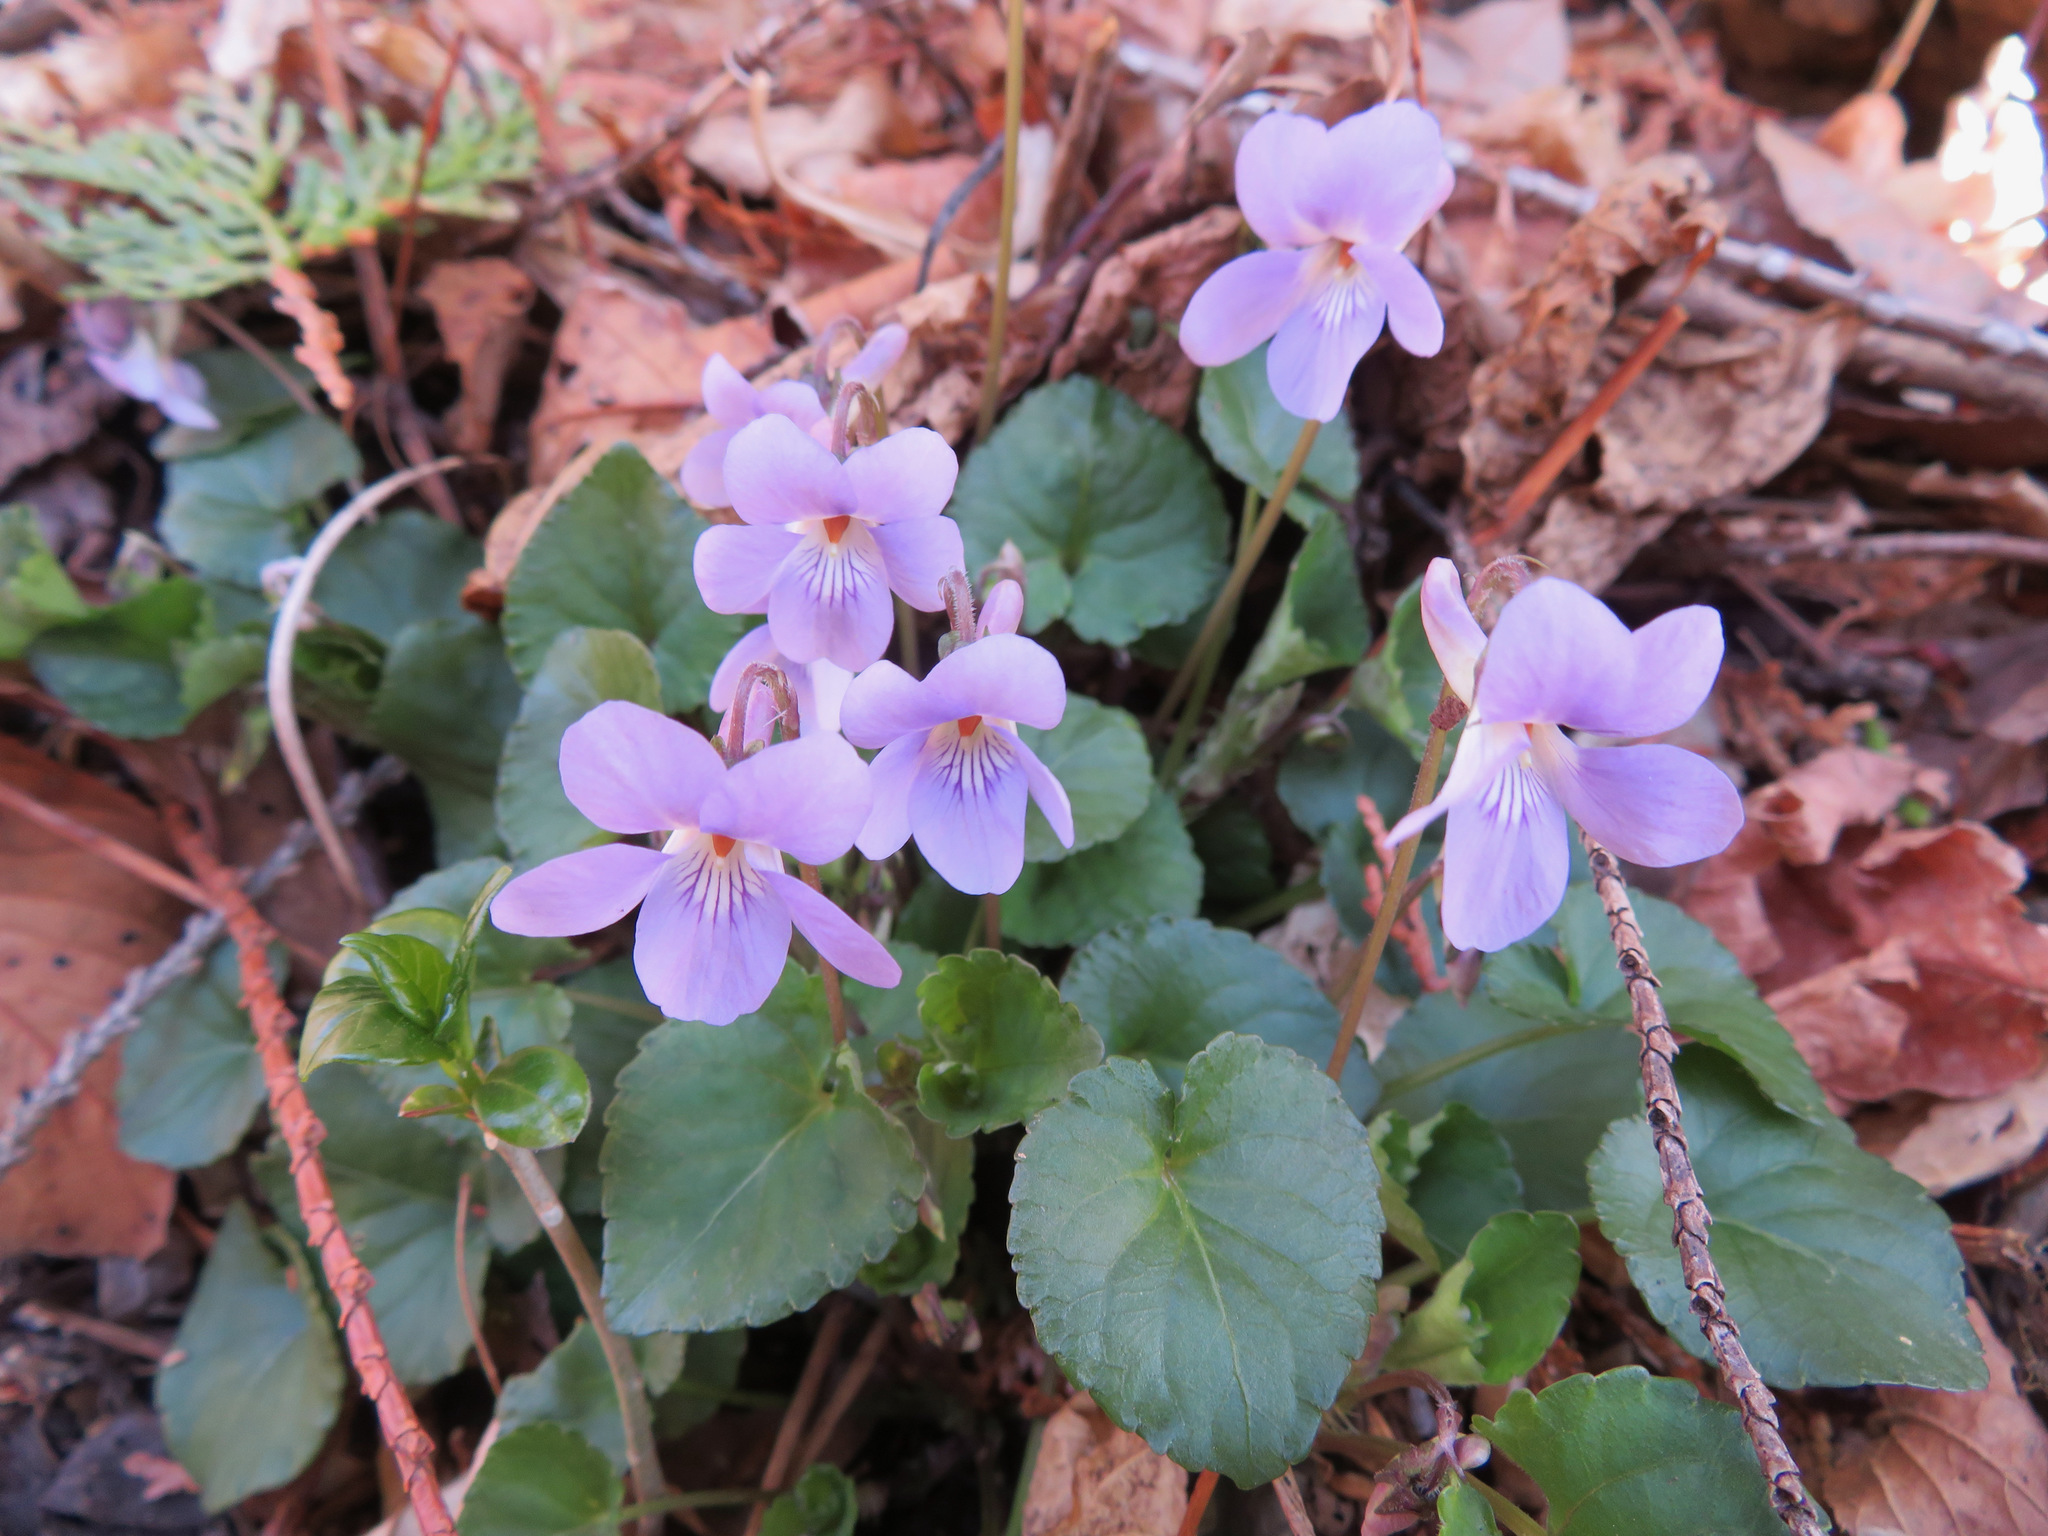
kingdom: Plantae
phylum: Tracheophyta
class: Magnoliopsida
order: Malpighiales
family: Violaceae
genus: Viola
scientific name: Viola grypoceras
